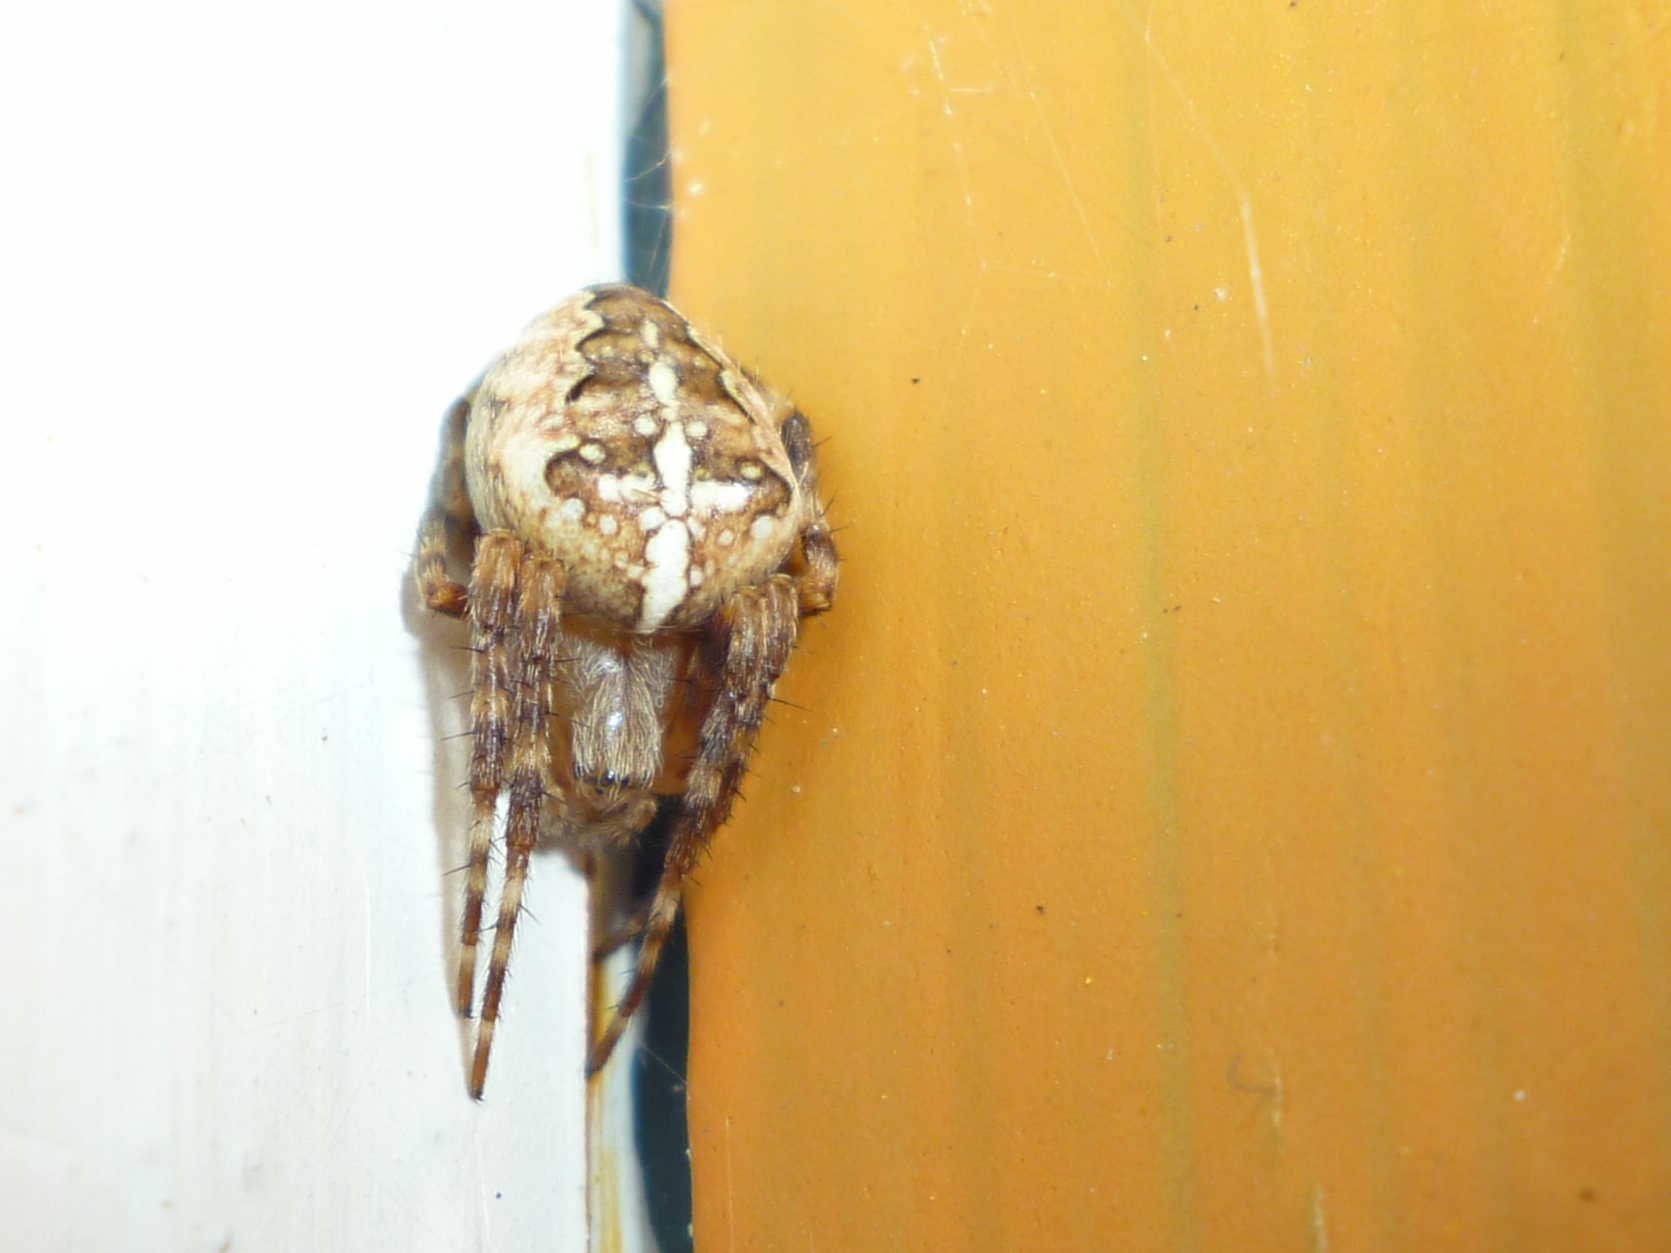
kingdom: Animalia
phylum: Arthropoda
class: Arachnida
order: Araneae
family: Araneidae
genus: Araneus
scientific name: Araneus diadematus
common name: Cross orbweaver
